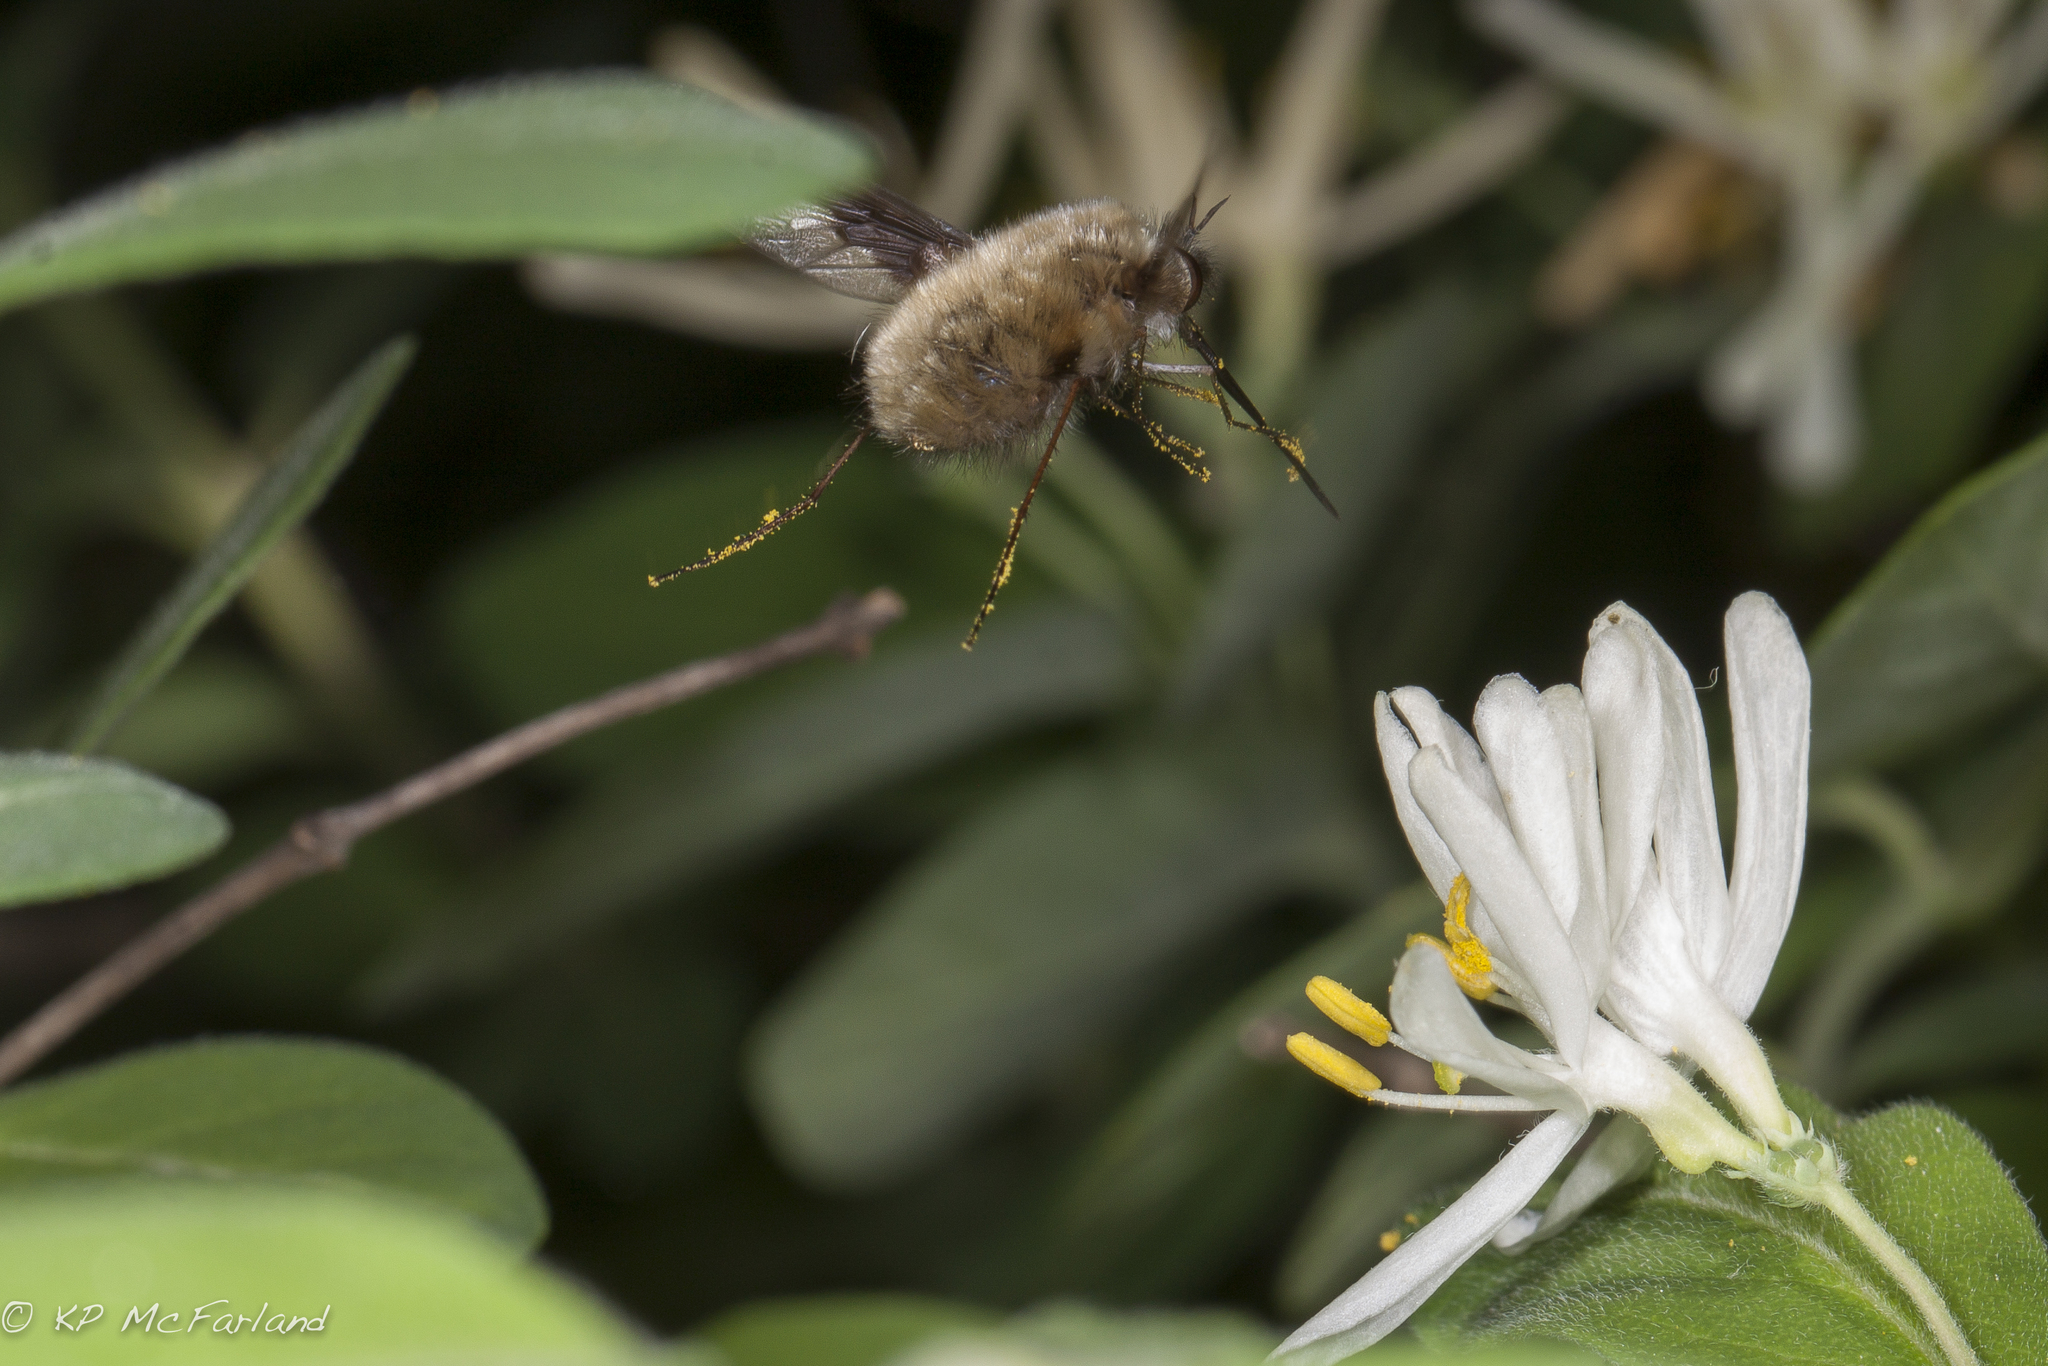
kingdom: Animalia
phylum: Arthropoda
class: Insecta
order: Diptera
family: Bombyliidae
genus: Bombylius
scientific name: Bombylius major
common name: Bee fly
